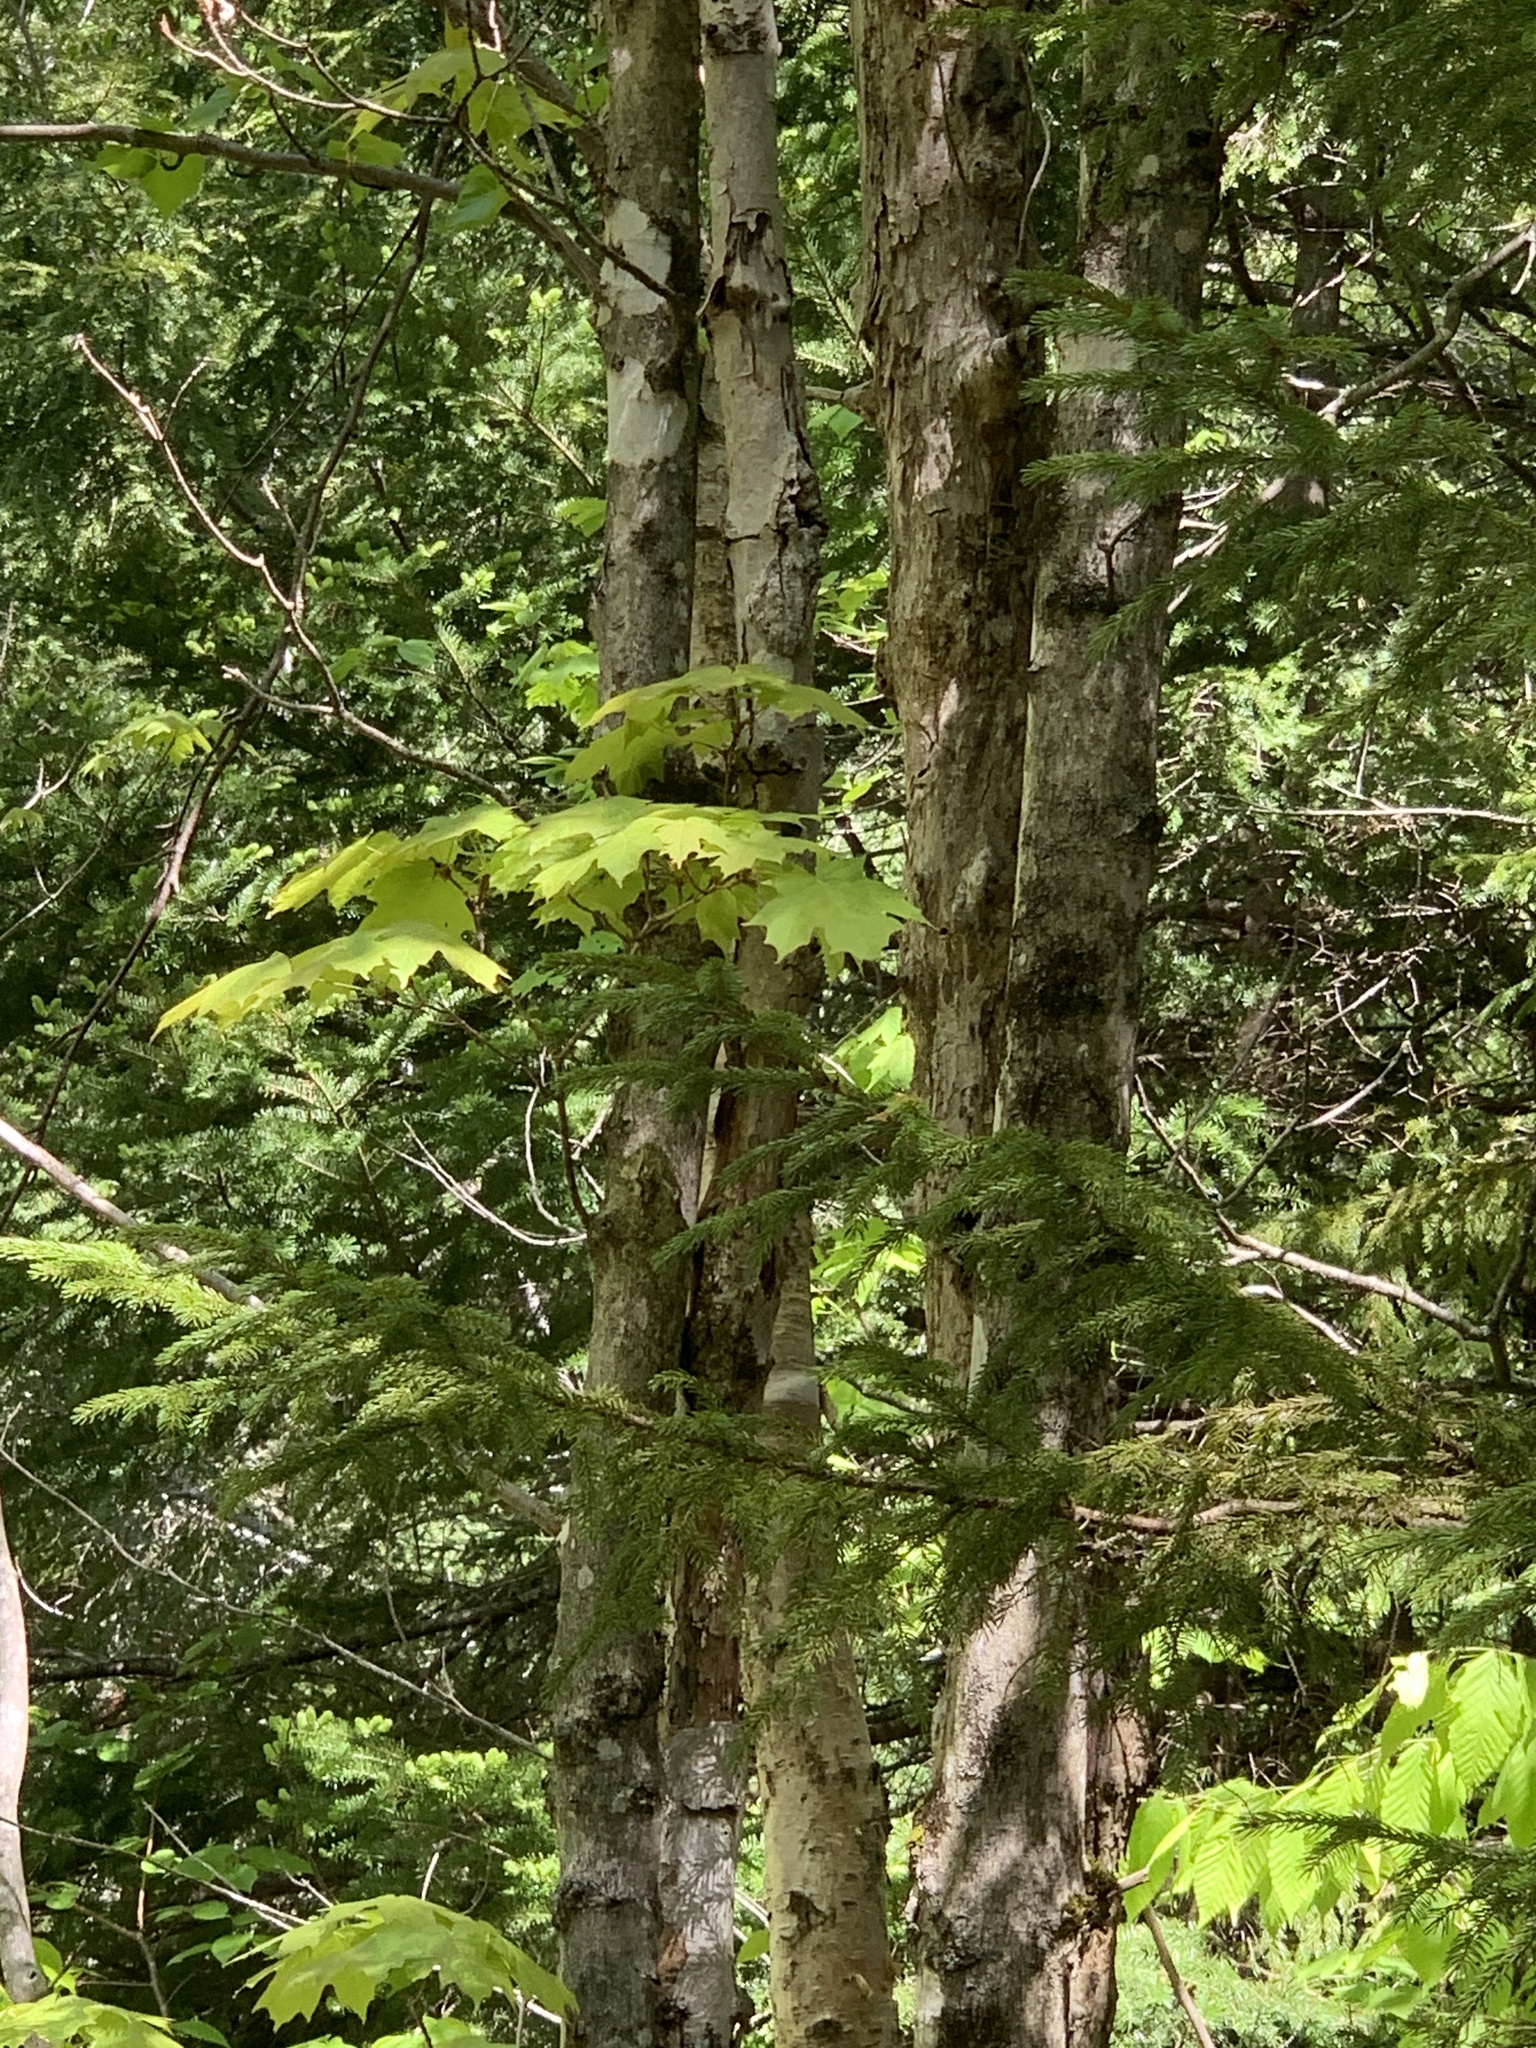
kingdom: Plantae
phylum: Tracheophyta
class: Magnoliopsida
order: Sapindales
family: Sapindaceae
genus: Acer
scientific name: Acer saccharum
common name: Sugar maple
